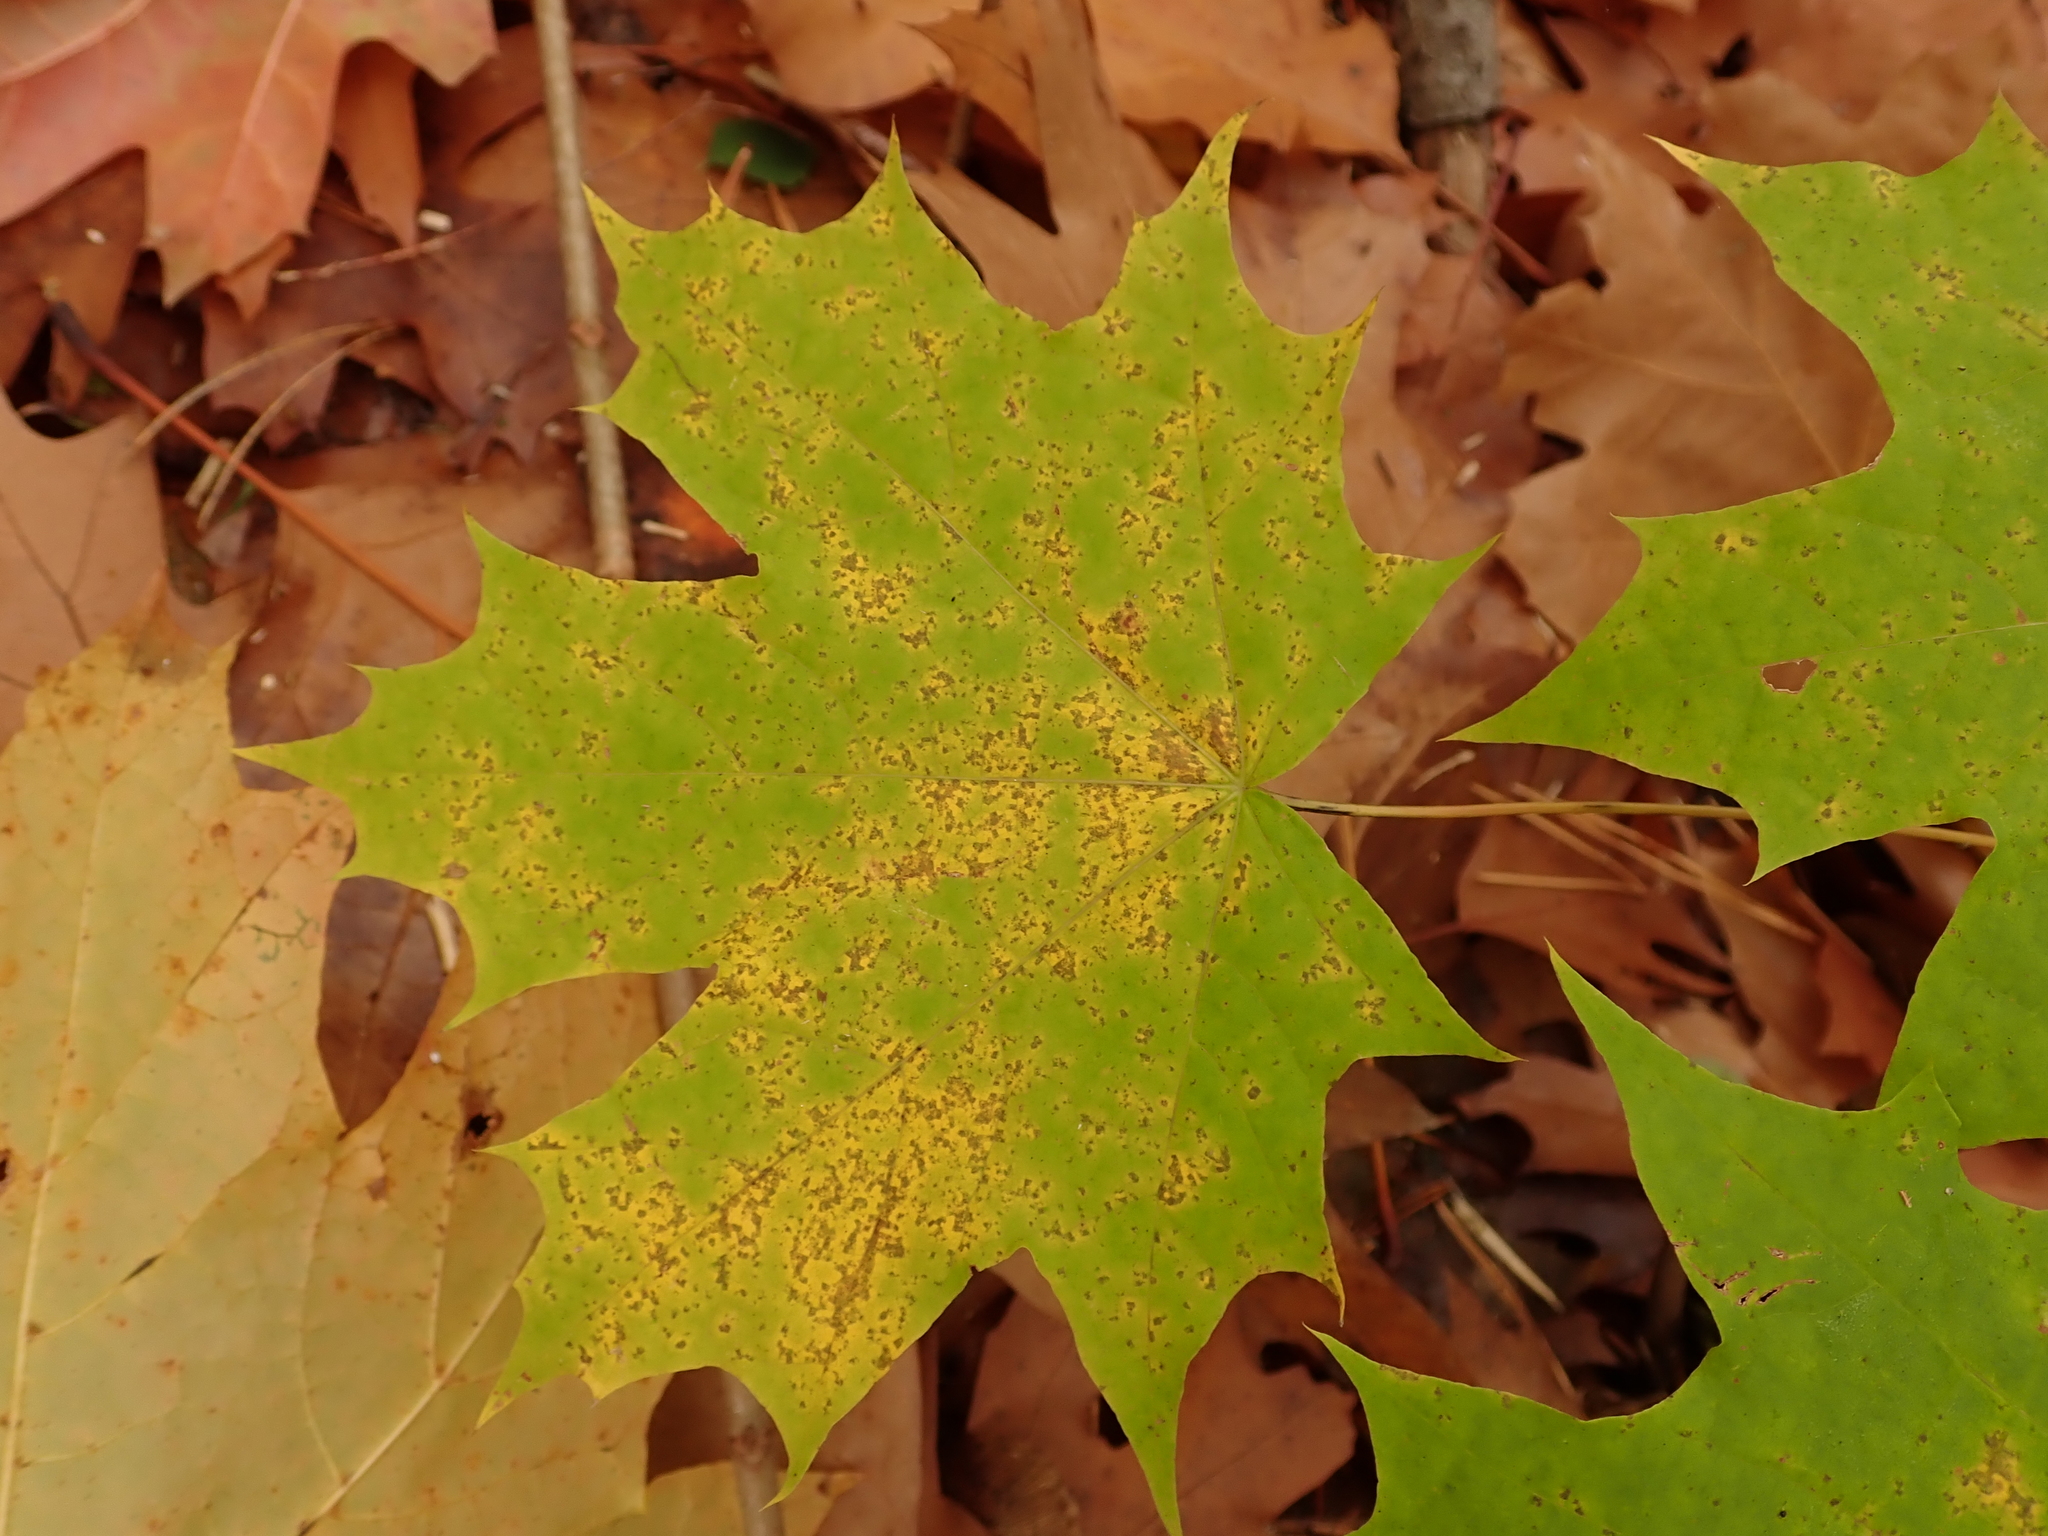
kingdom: Plantae
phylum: Tracheophyta
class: Magnoliopsida
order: Sapindales
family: Sapindaceae
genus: Acer
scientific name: Acer platanoides
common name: Norway maple
